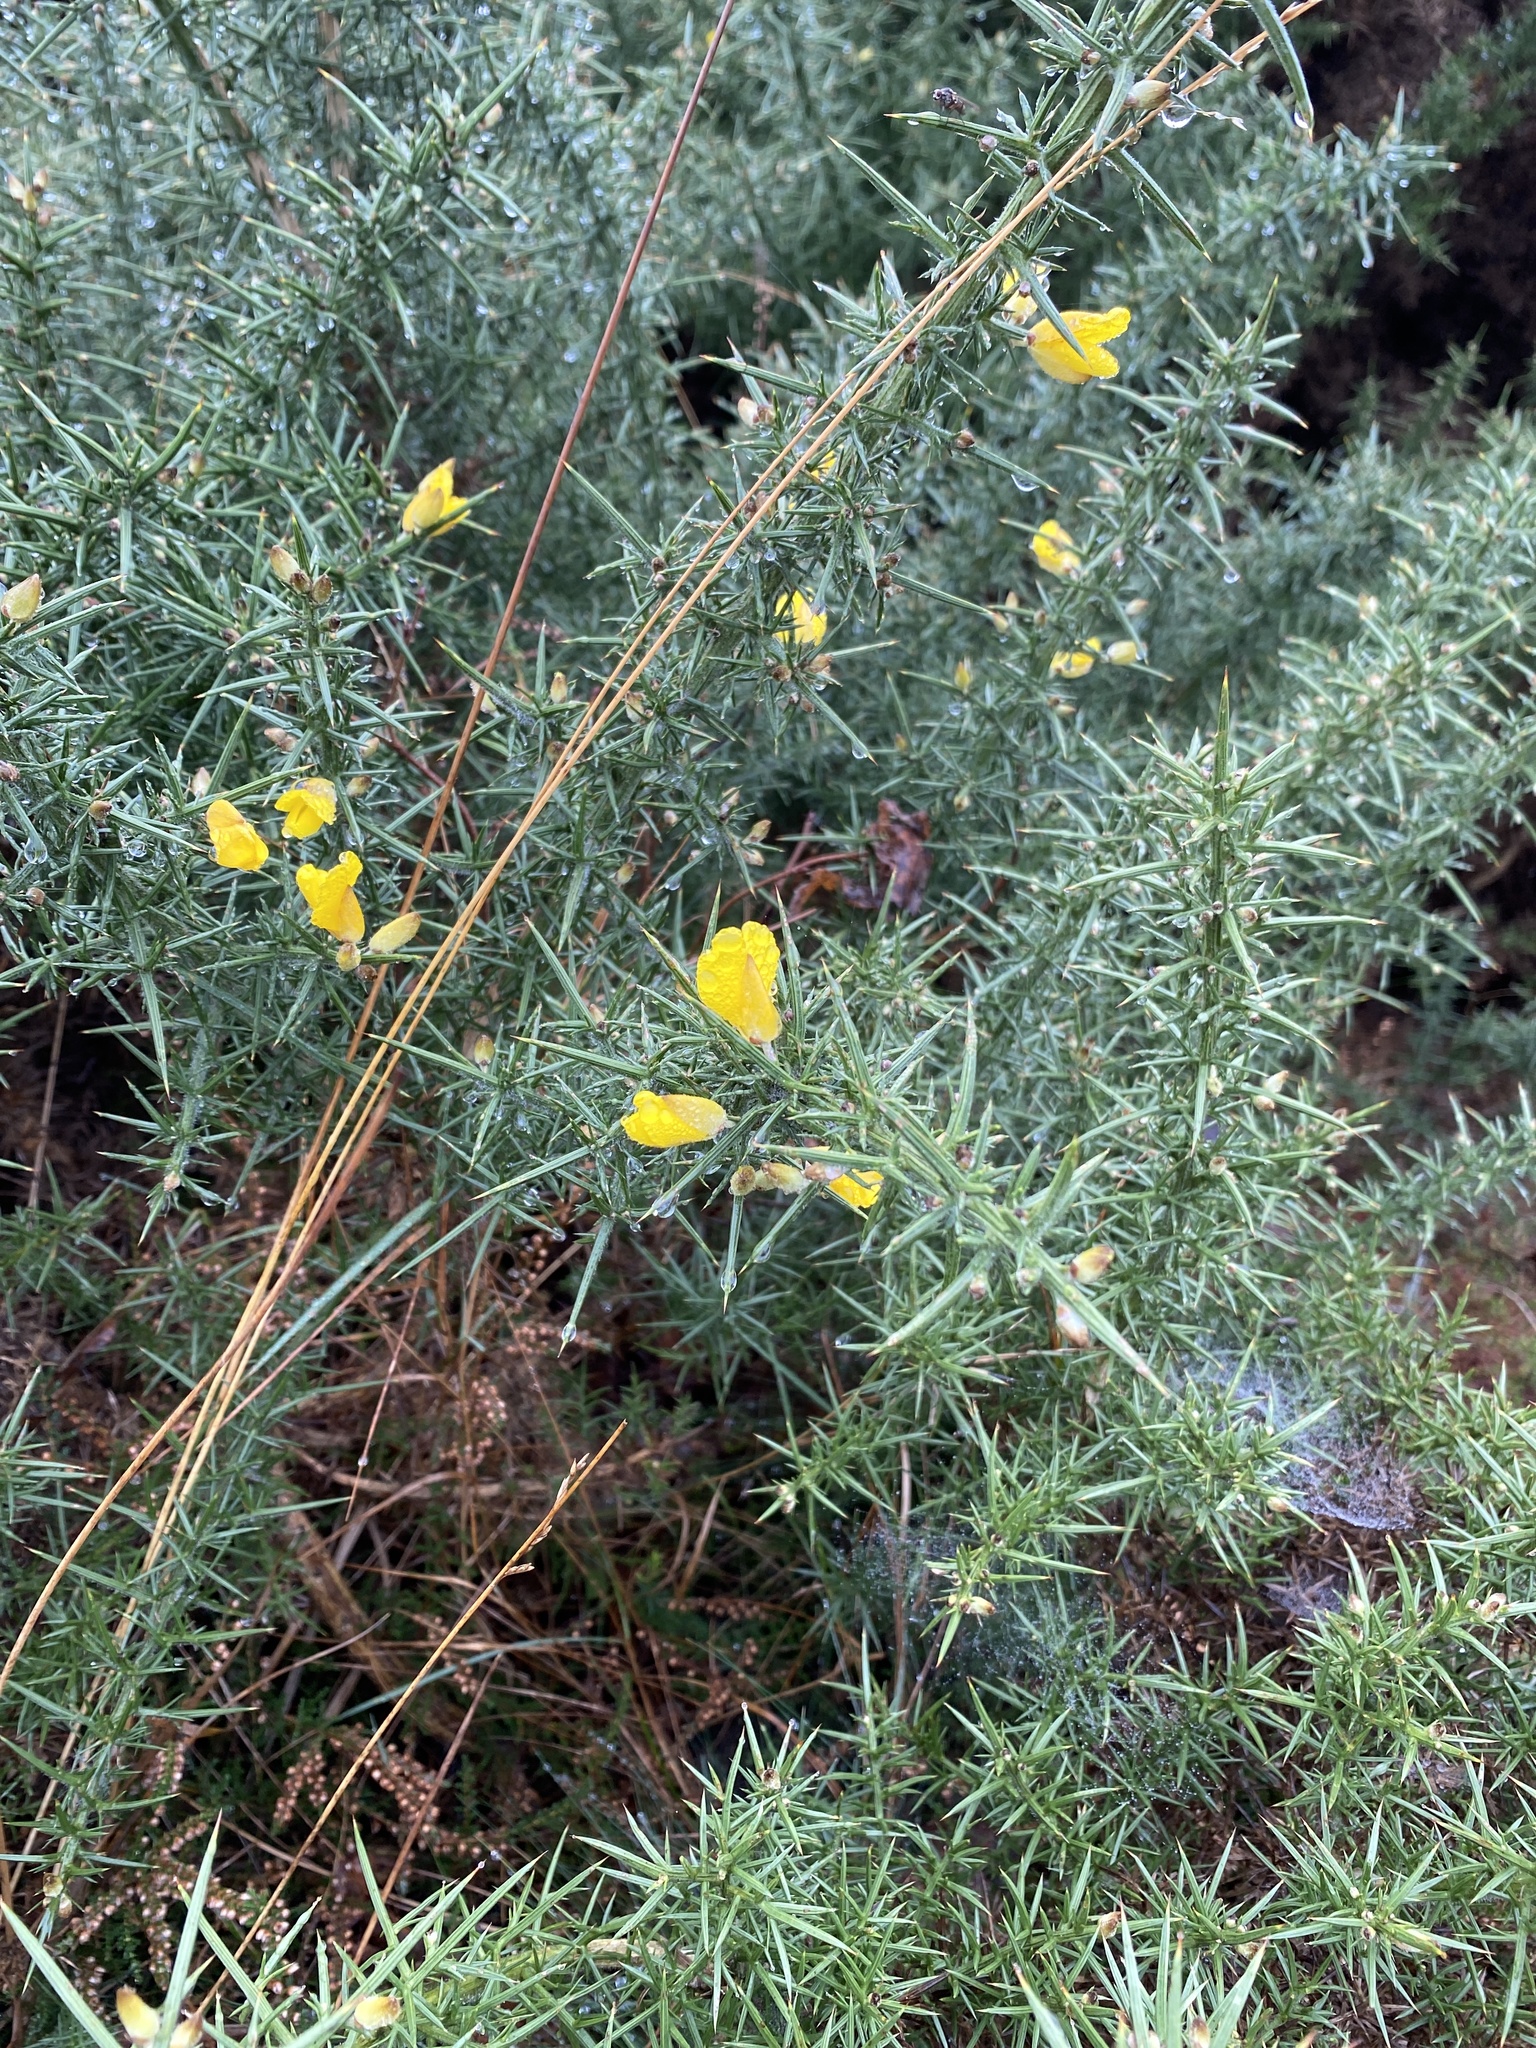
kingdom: Plantae
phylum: Tracheophyta
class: Magnoliopsida
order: Fabales
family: Fabaceae
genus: Ulex
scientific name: Ulex europaeus
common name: Common gorse
